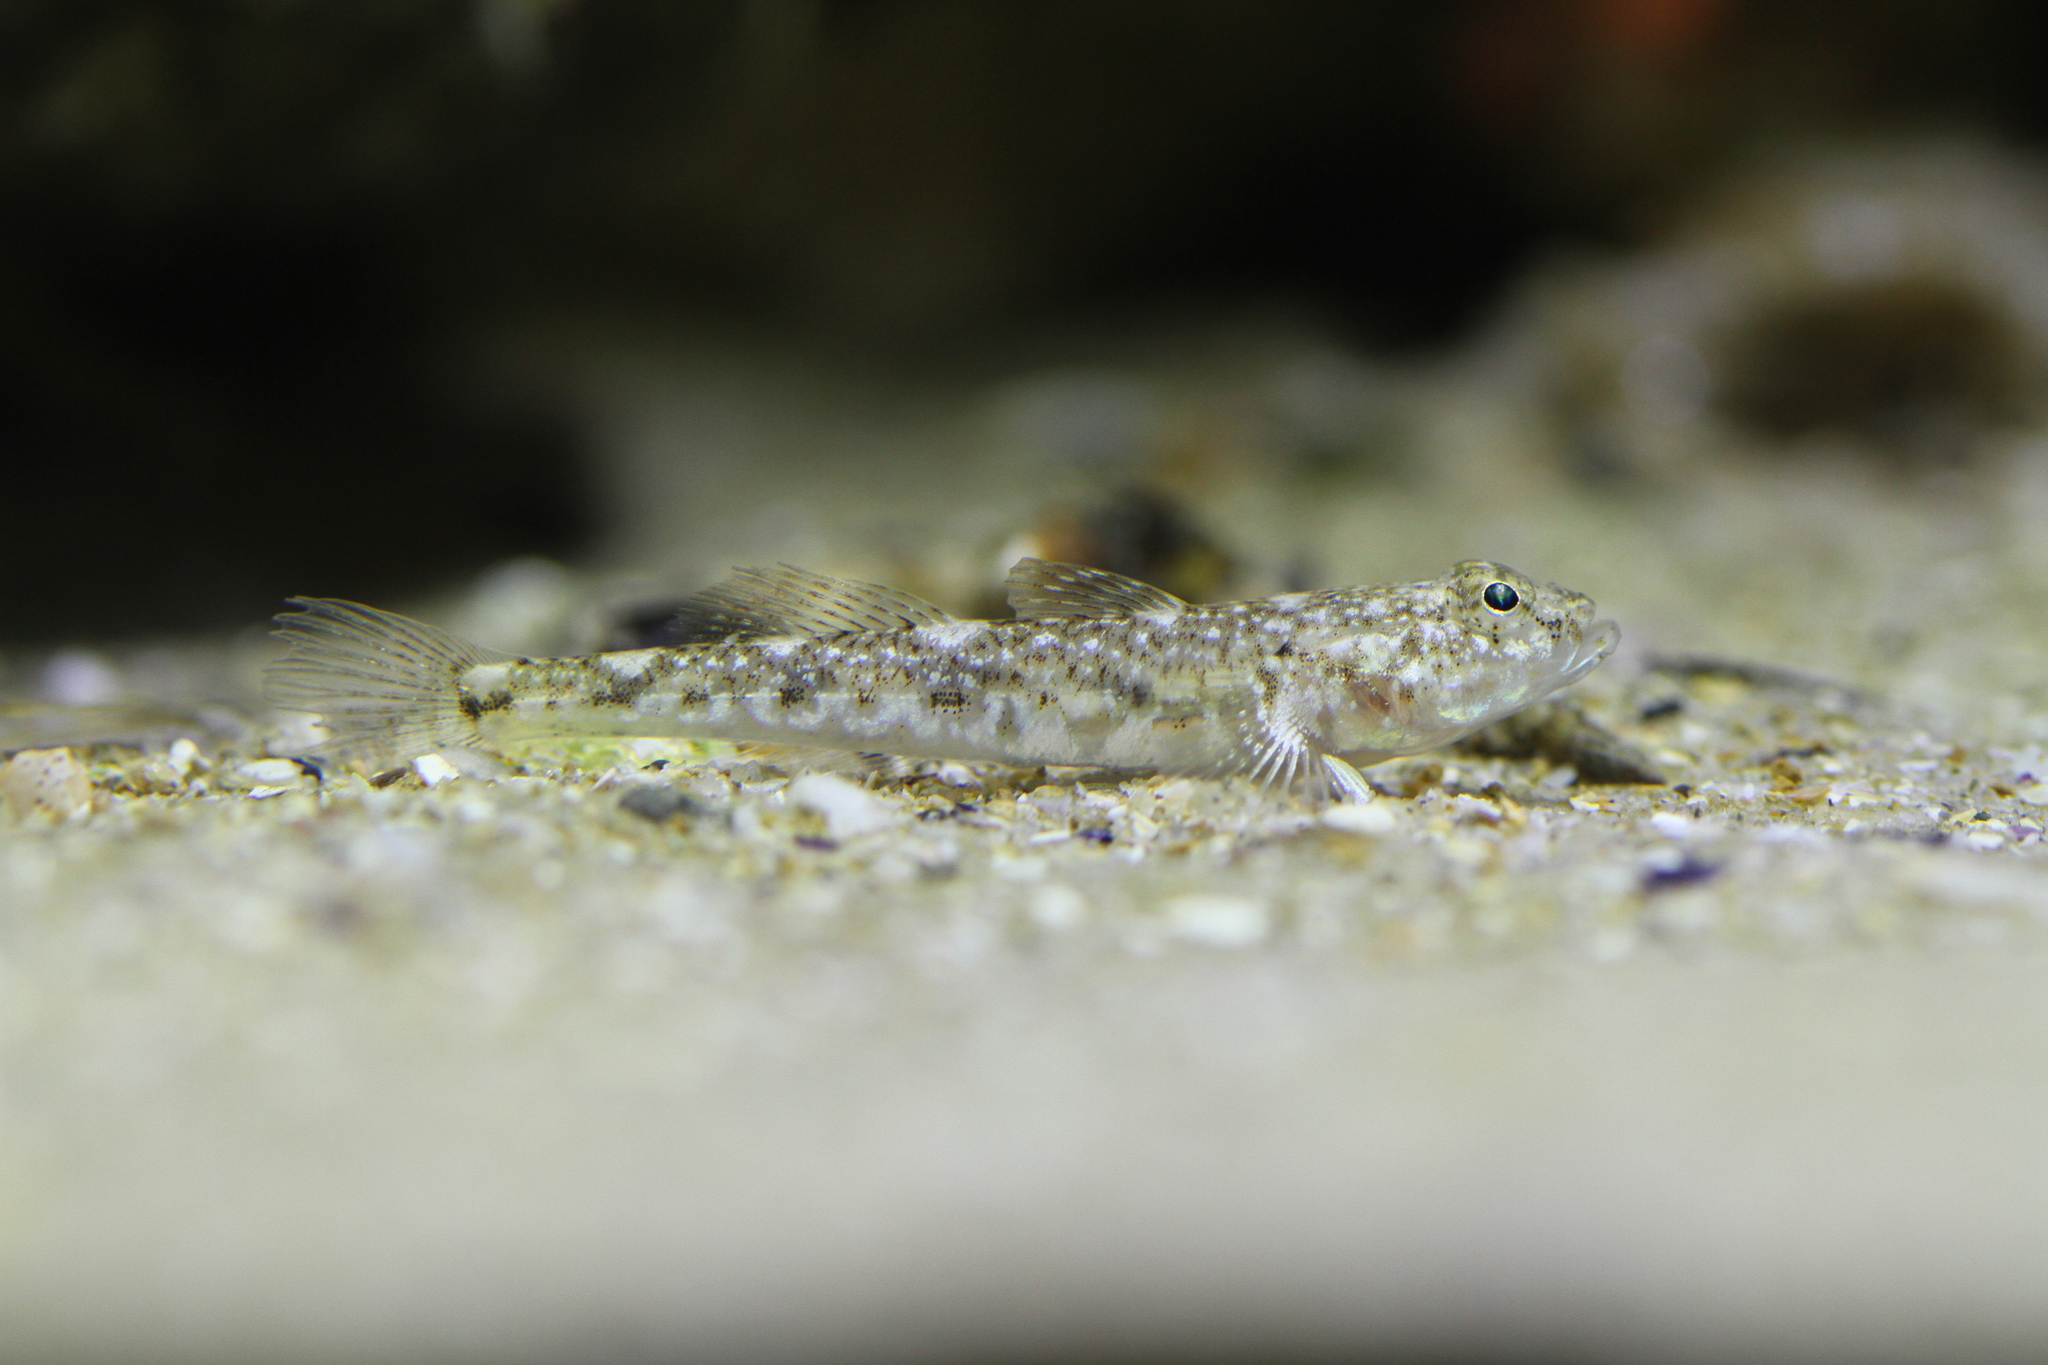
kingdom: Animalia
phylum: Chordata
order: Perciformes
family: Gobiidae
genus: Pomatoschistus
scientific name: Pomatoschistus marmoratus
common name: Marbled goby
